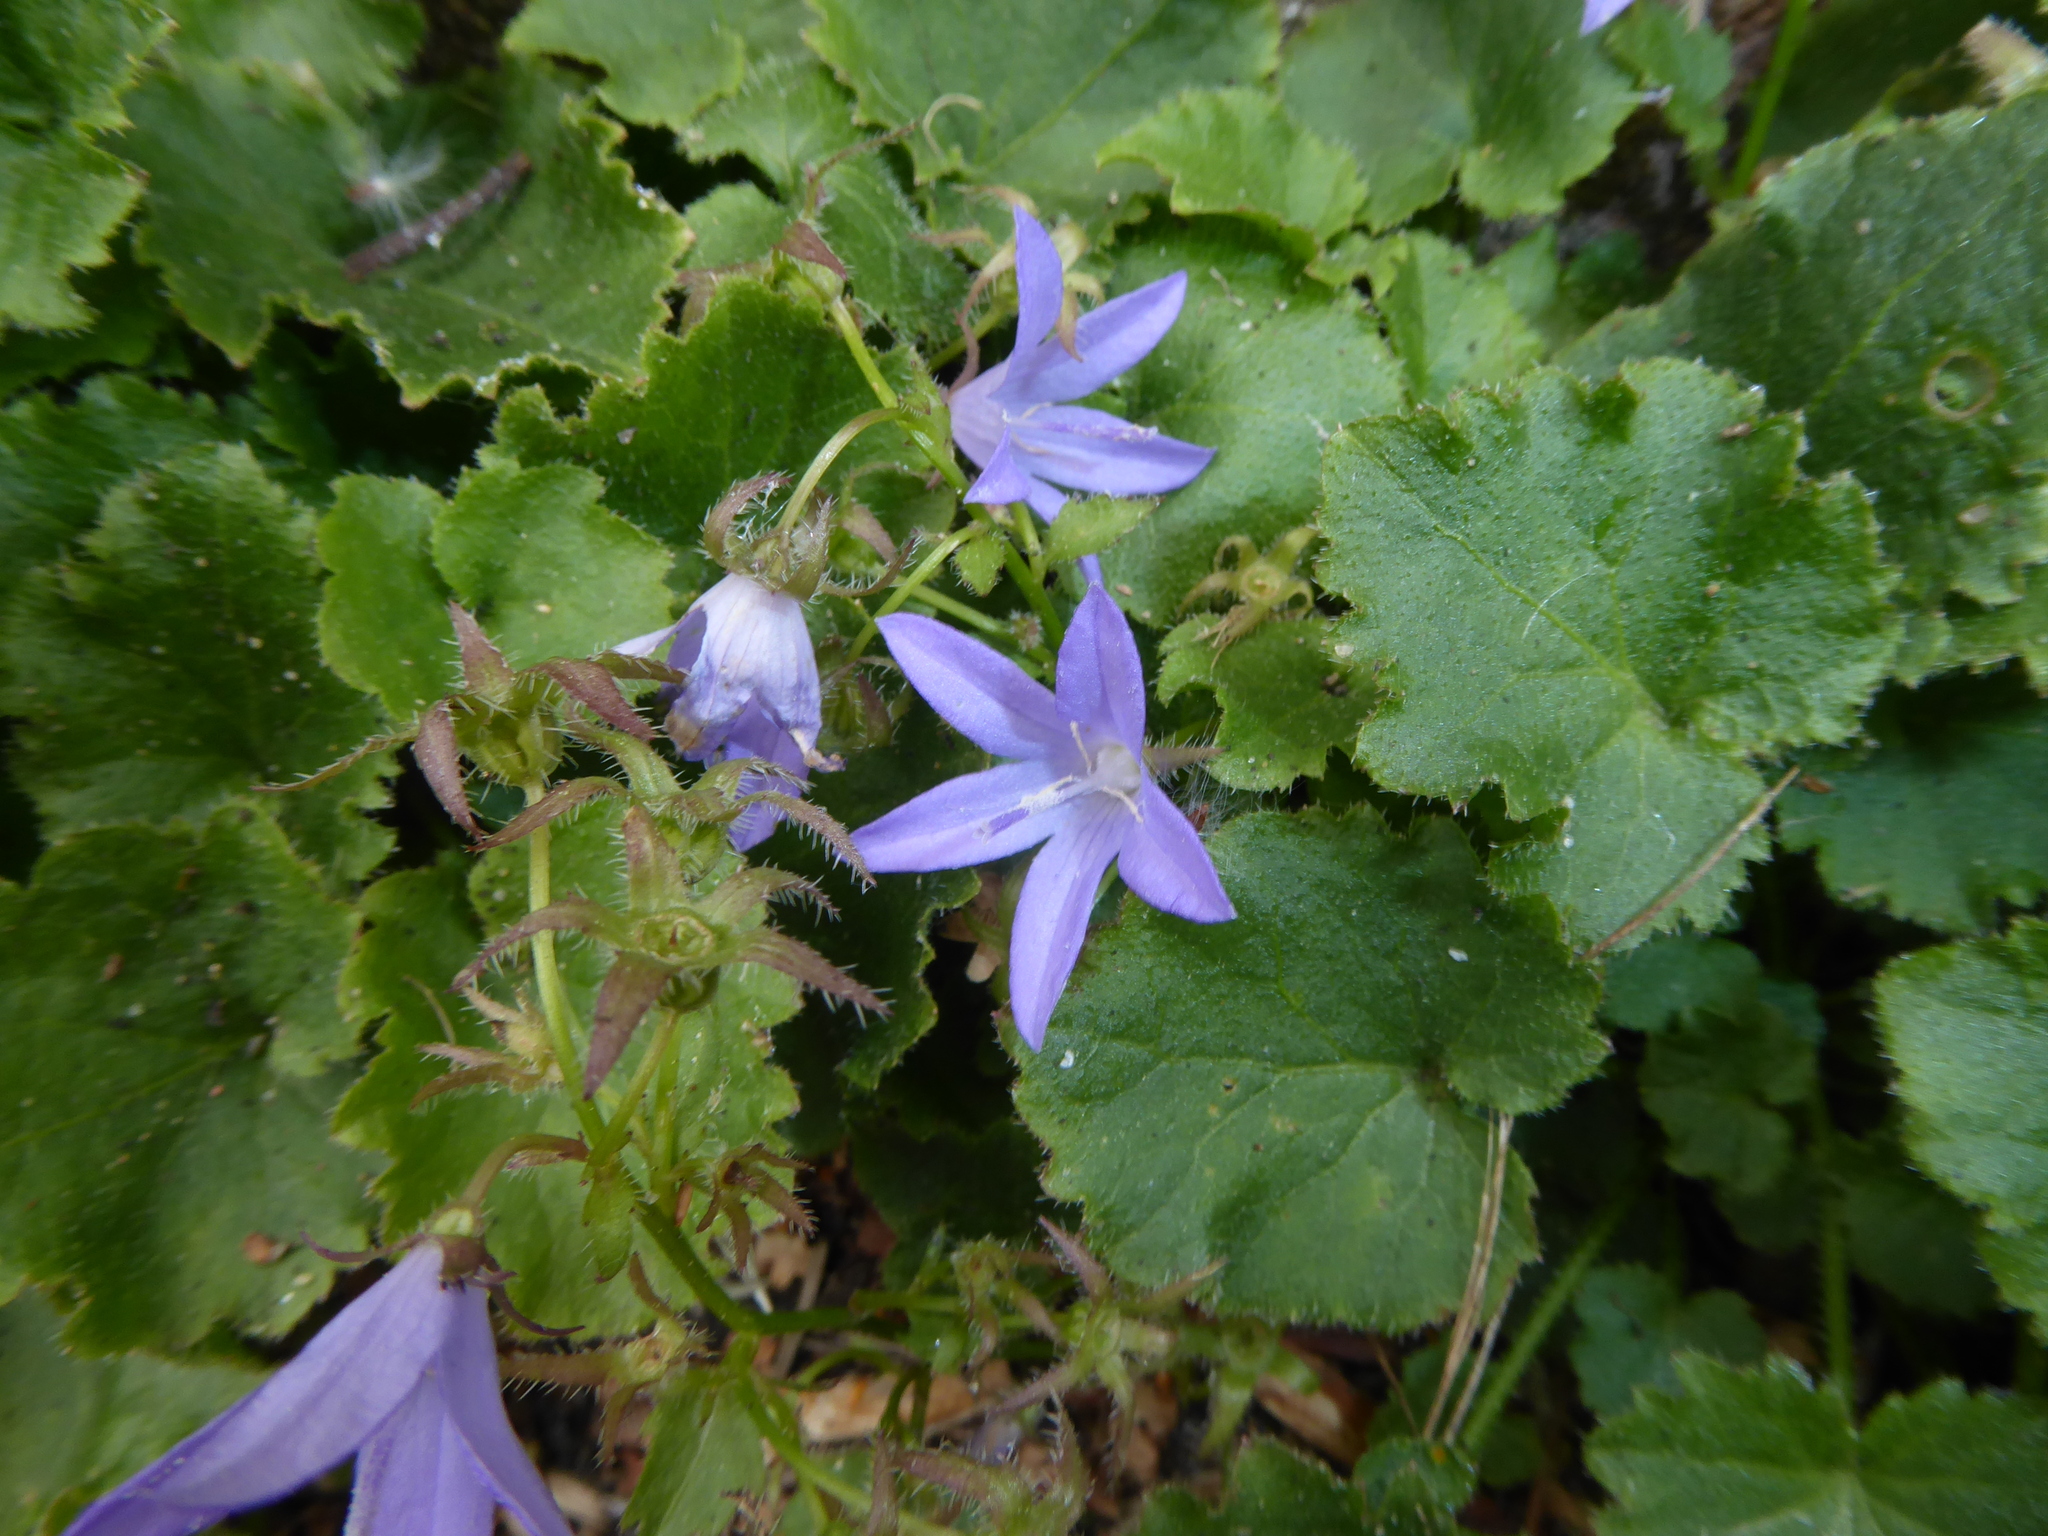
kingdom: Plantae
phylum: Tracheophyta
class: Magnoliopsida
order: Asterales
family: Campanulaceae
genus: Campanula
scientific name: Campanula poscharskyana
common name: Trailing bellflower
